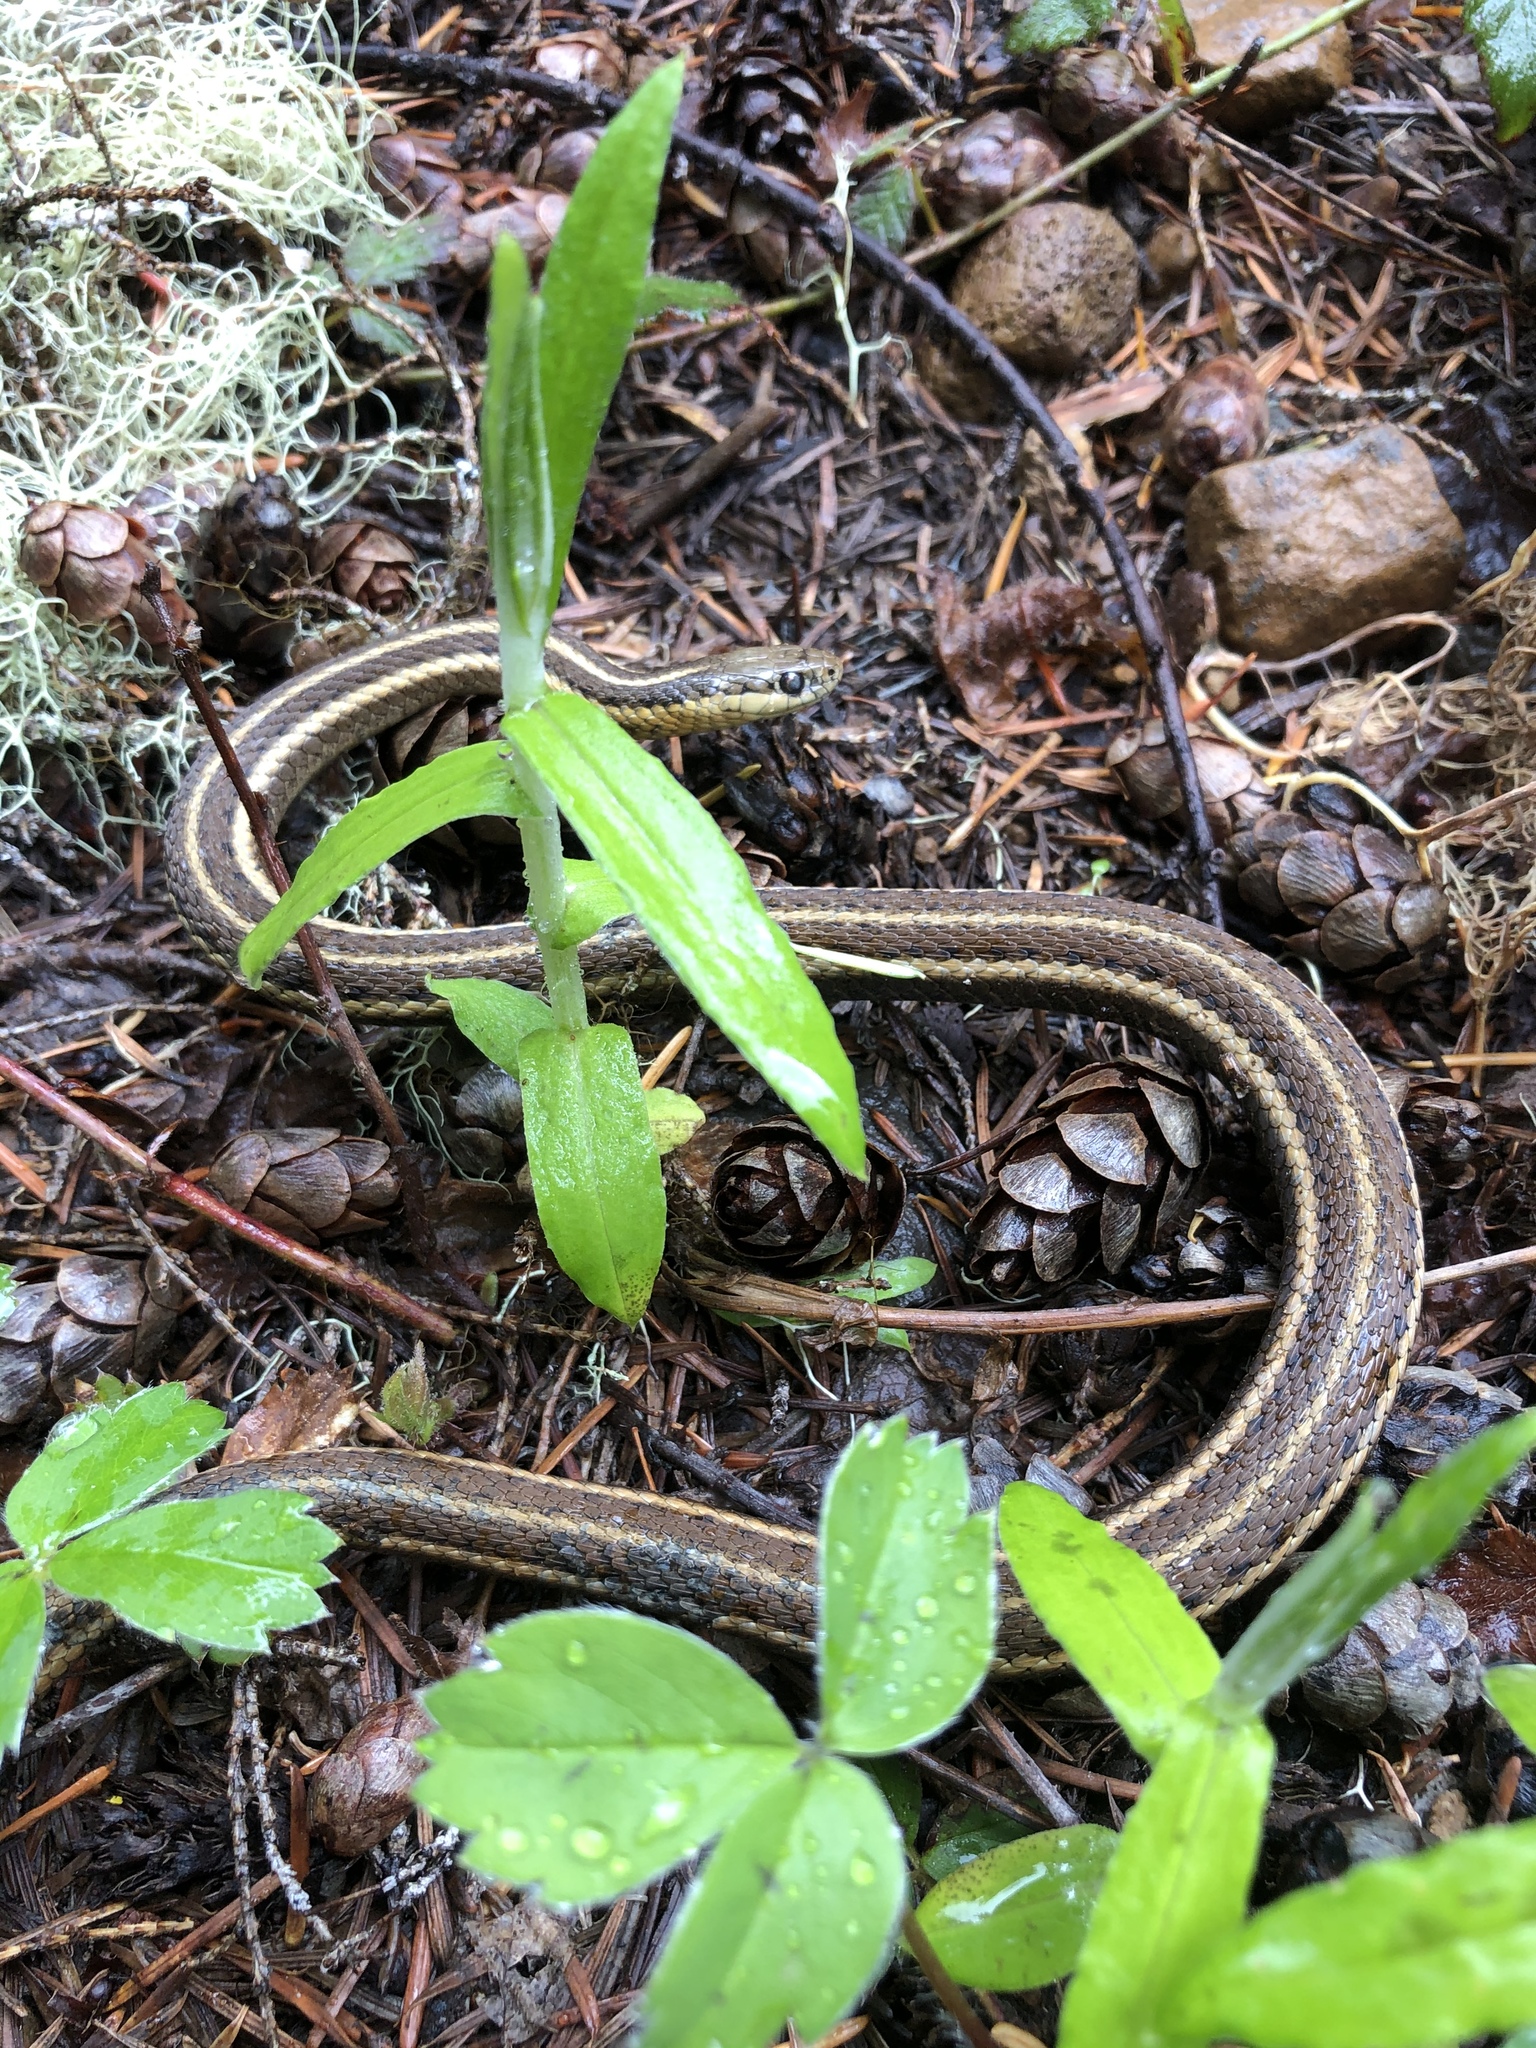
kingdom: Animalia
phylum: Chordata
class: Squamata
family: Colubridae
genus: Thamnophis
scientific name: Thamnophis ordinoides
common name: Northwestern garter snake
